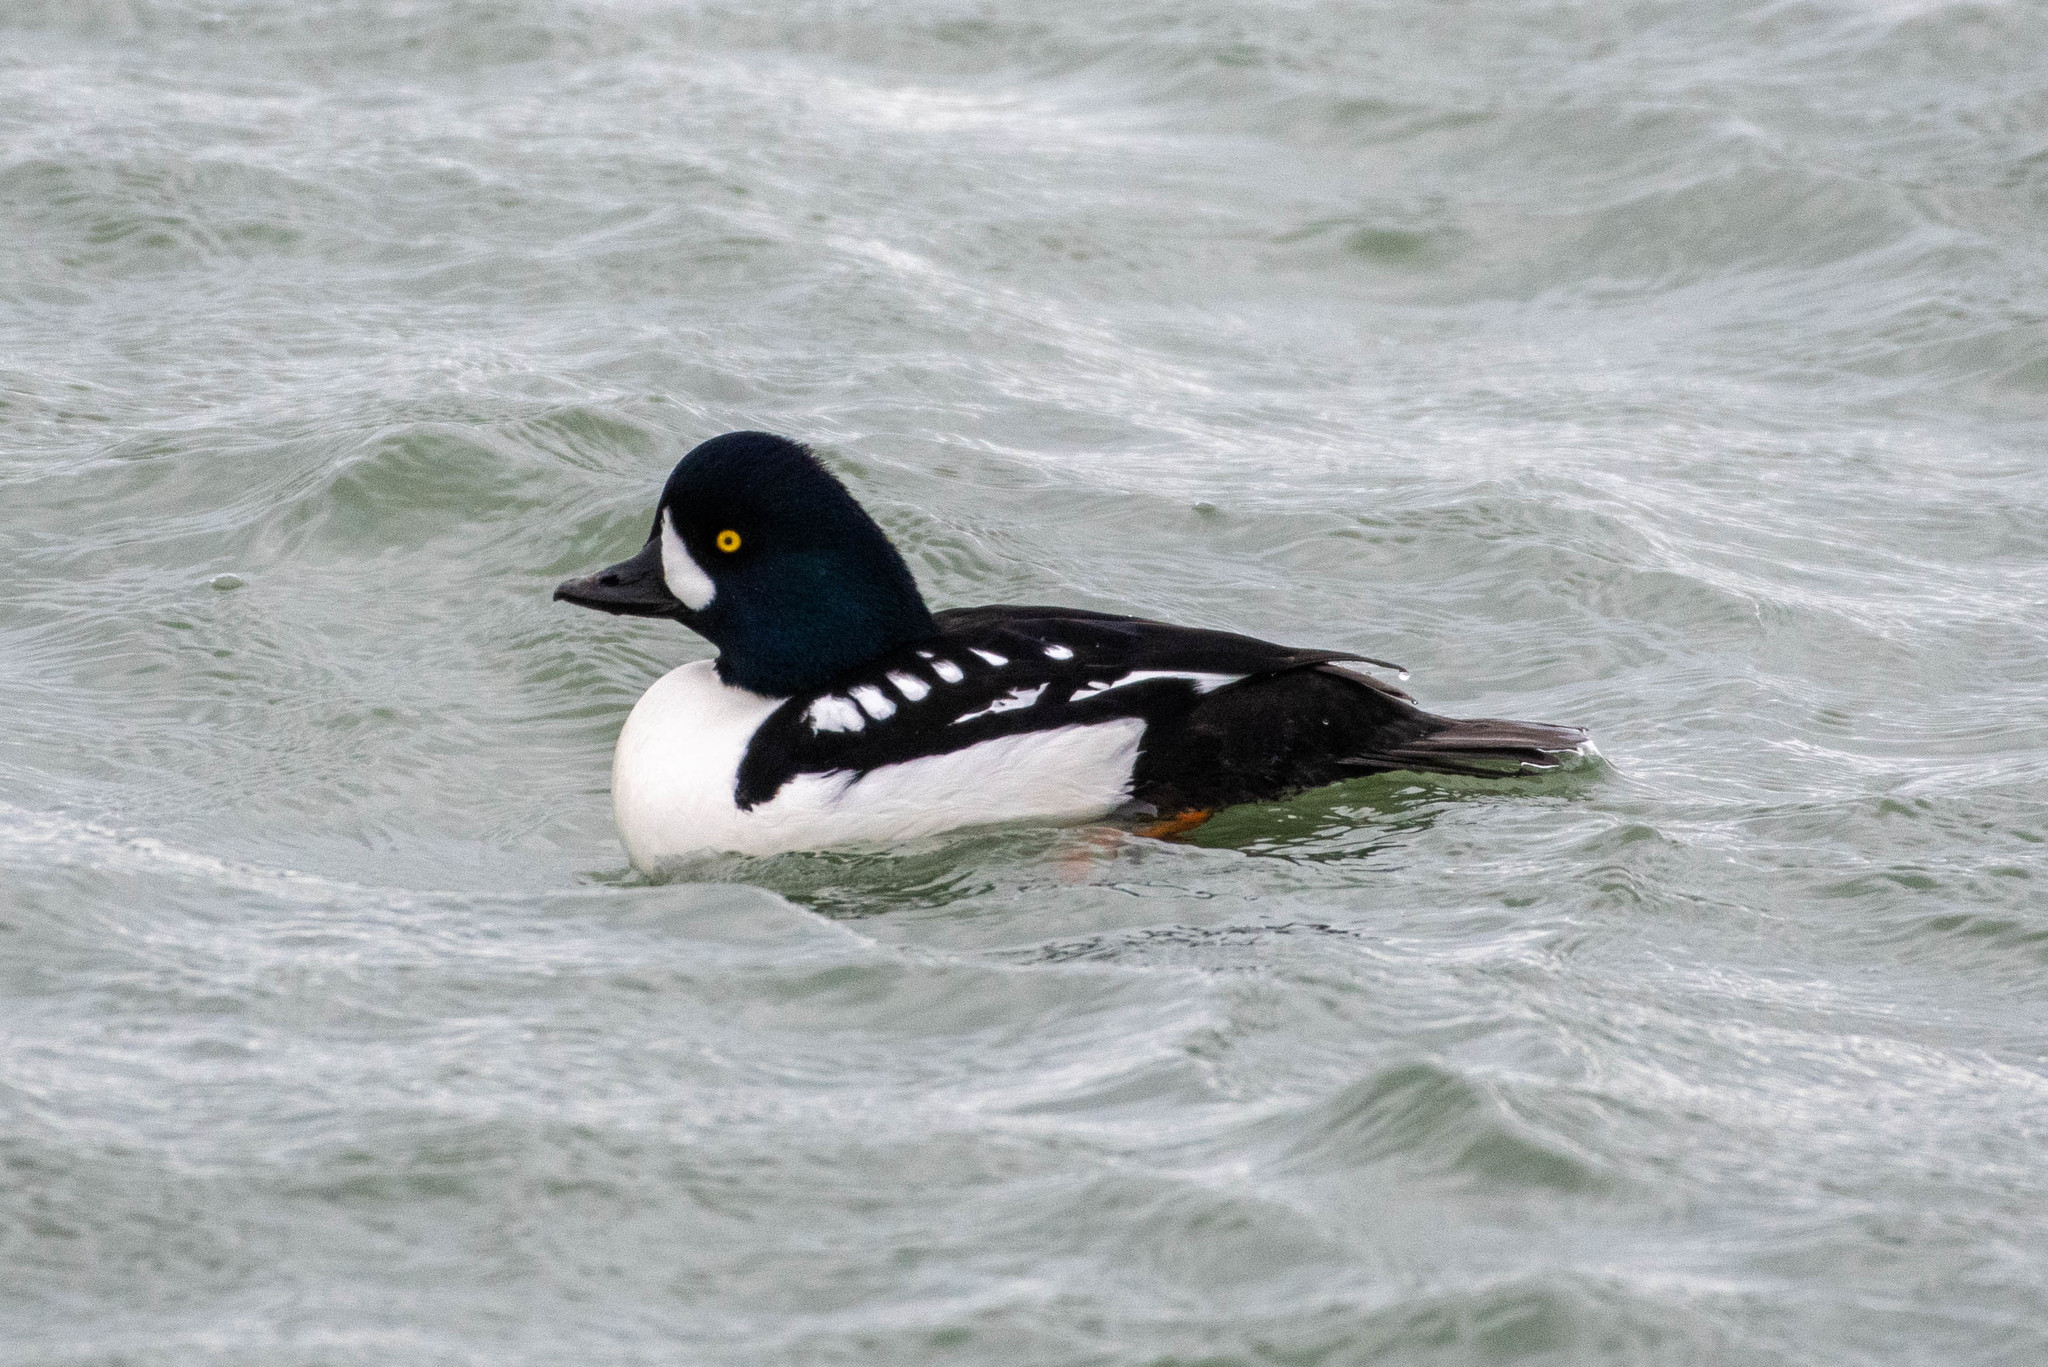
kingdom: Animalia
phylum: Chordata
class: Aves
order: Anseriformes
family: Anatidae
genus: Bucephala
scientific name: Bucephala islandica
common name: Barrow's goldeneye
